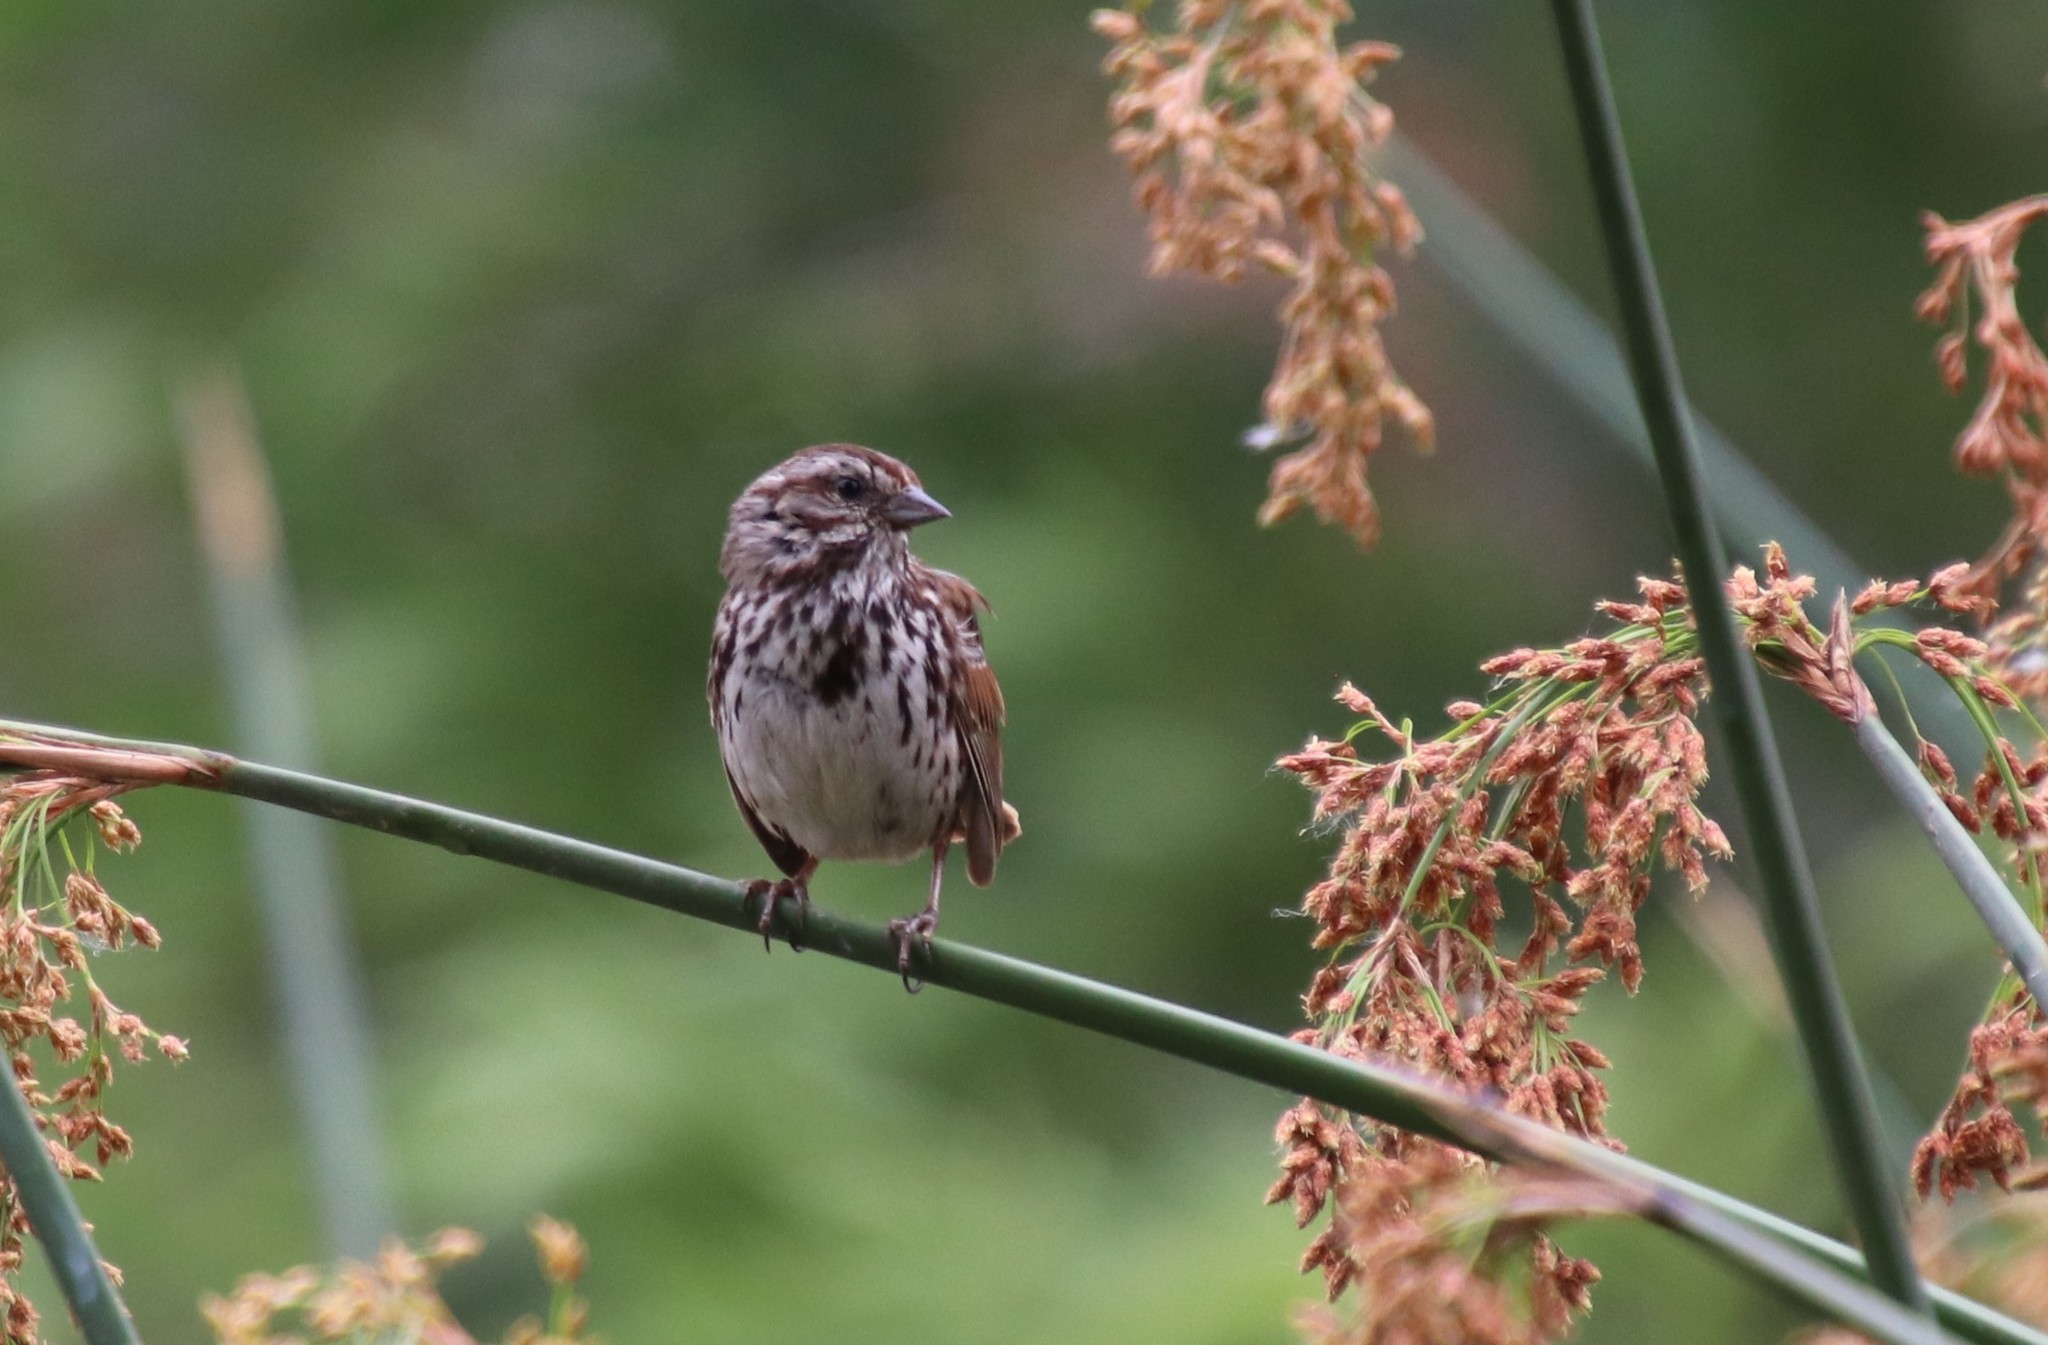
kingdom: Animalia
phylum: Chordata
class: Aves
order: Passeriformes
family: Passerellidae
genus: Melospiza
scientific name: Melospiza melodia
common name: Song sparrow
